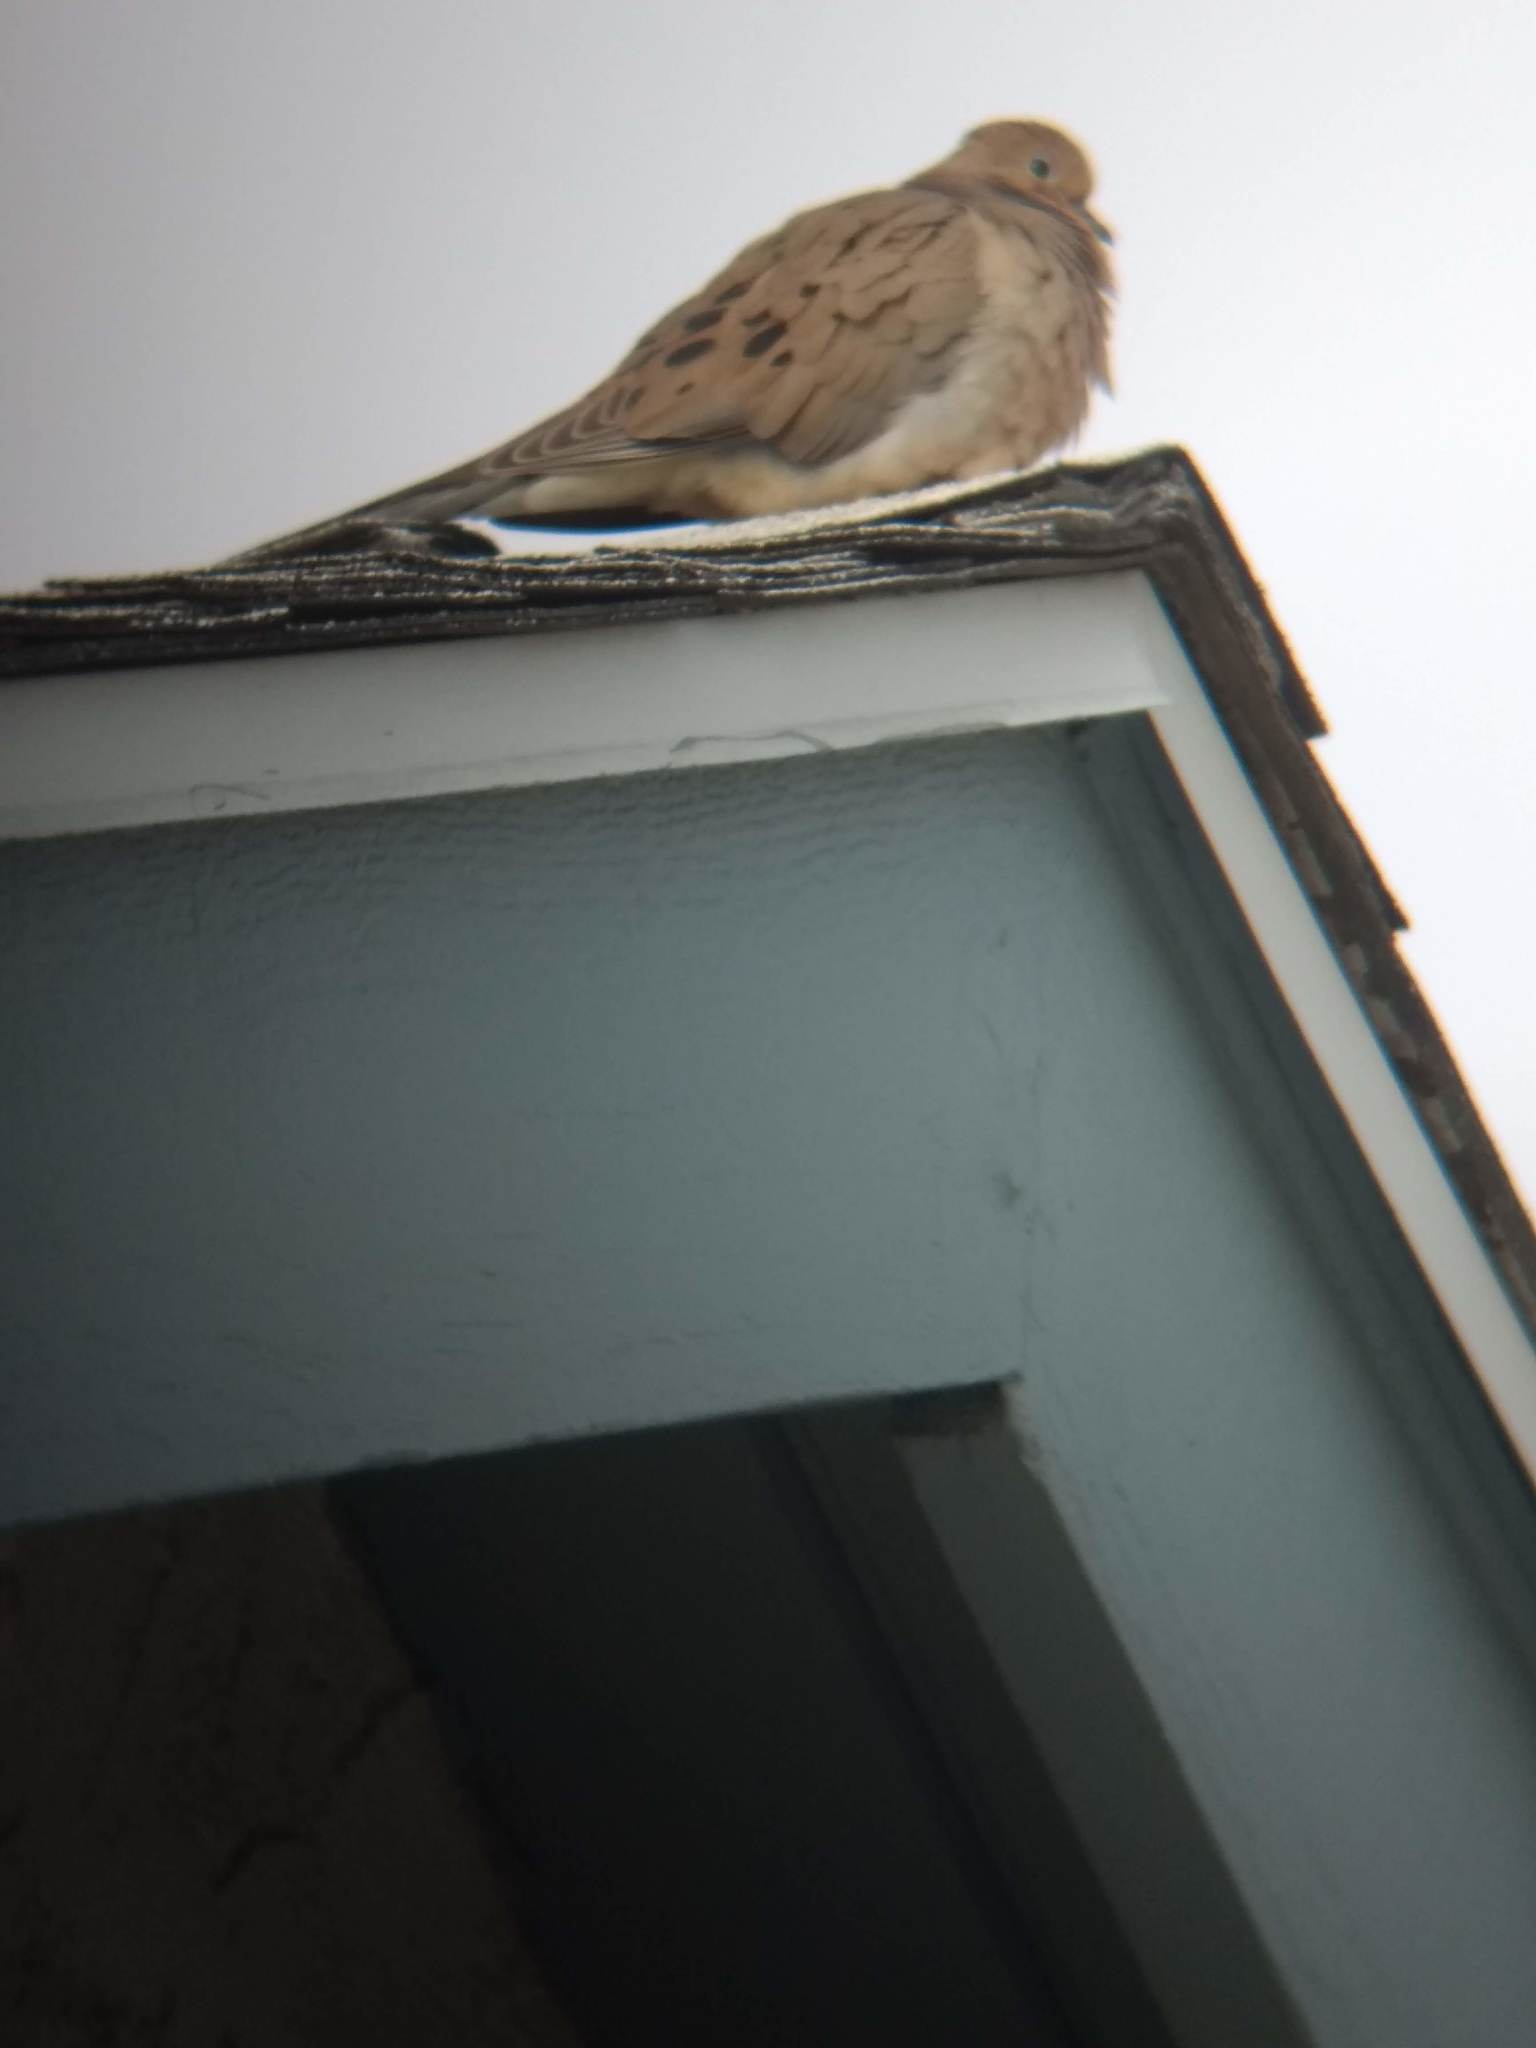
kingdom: Animalia
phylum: Chordata
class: Aves
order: Columbiformes
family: Columbidae
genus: Zenaida
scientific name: Zenaida macroura
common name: Mourning dove
